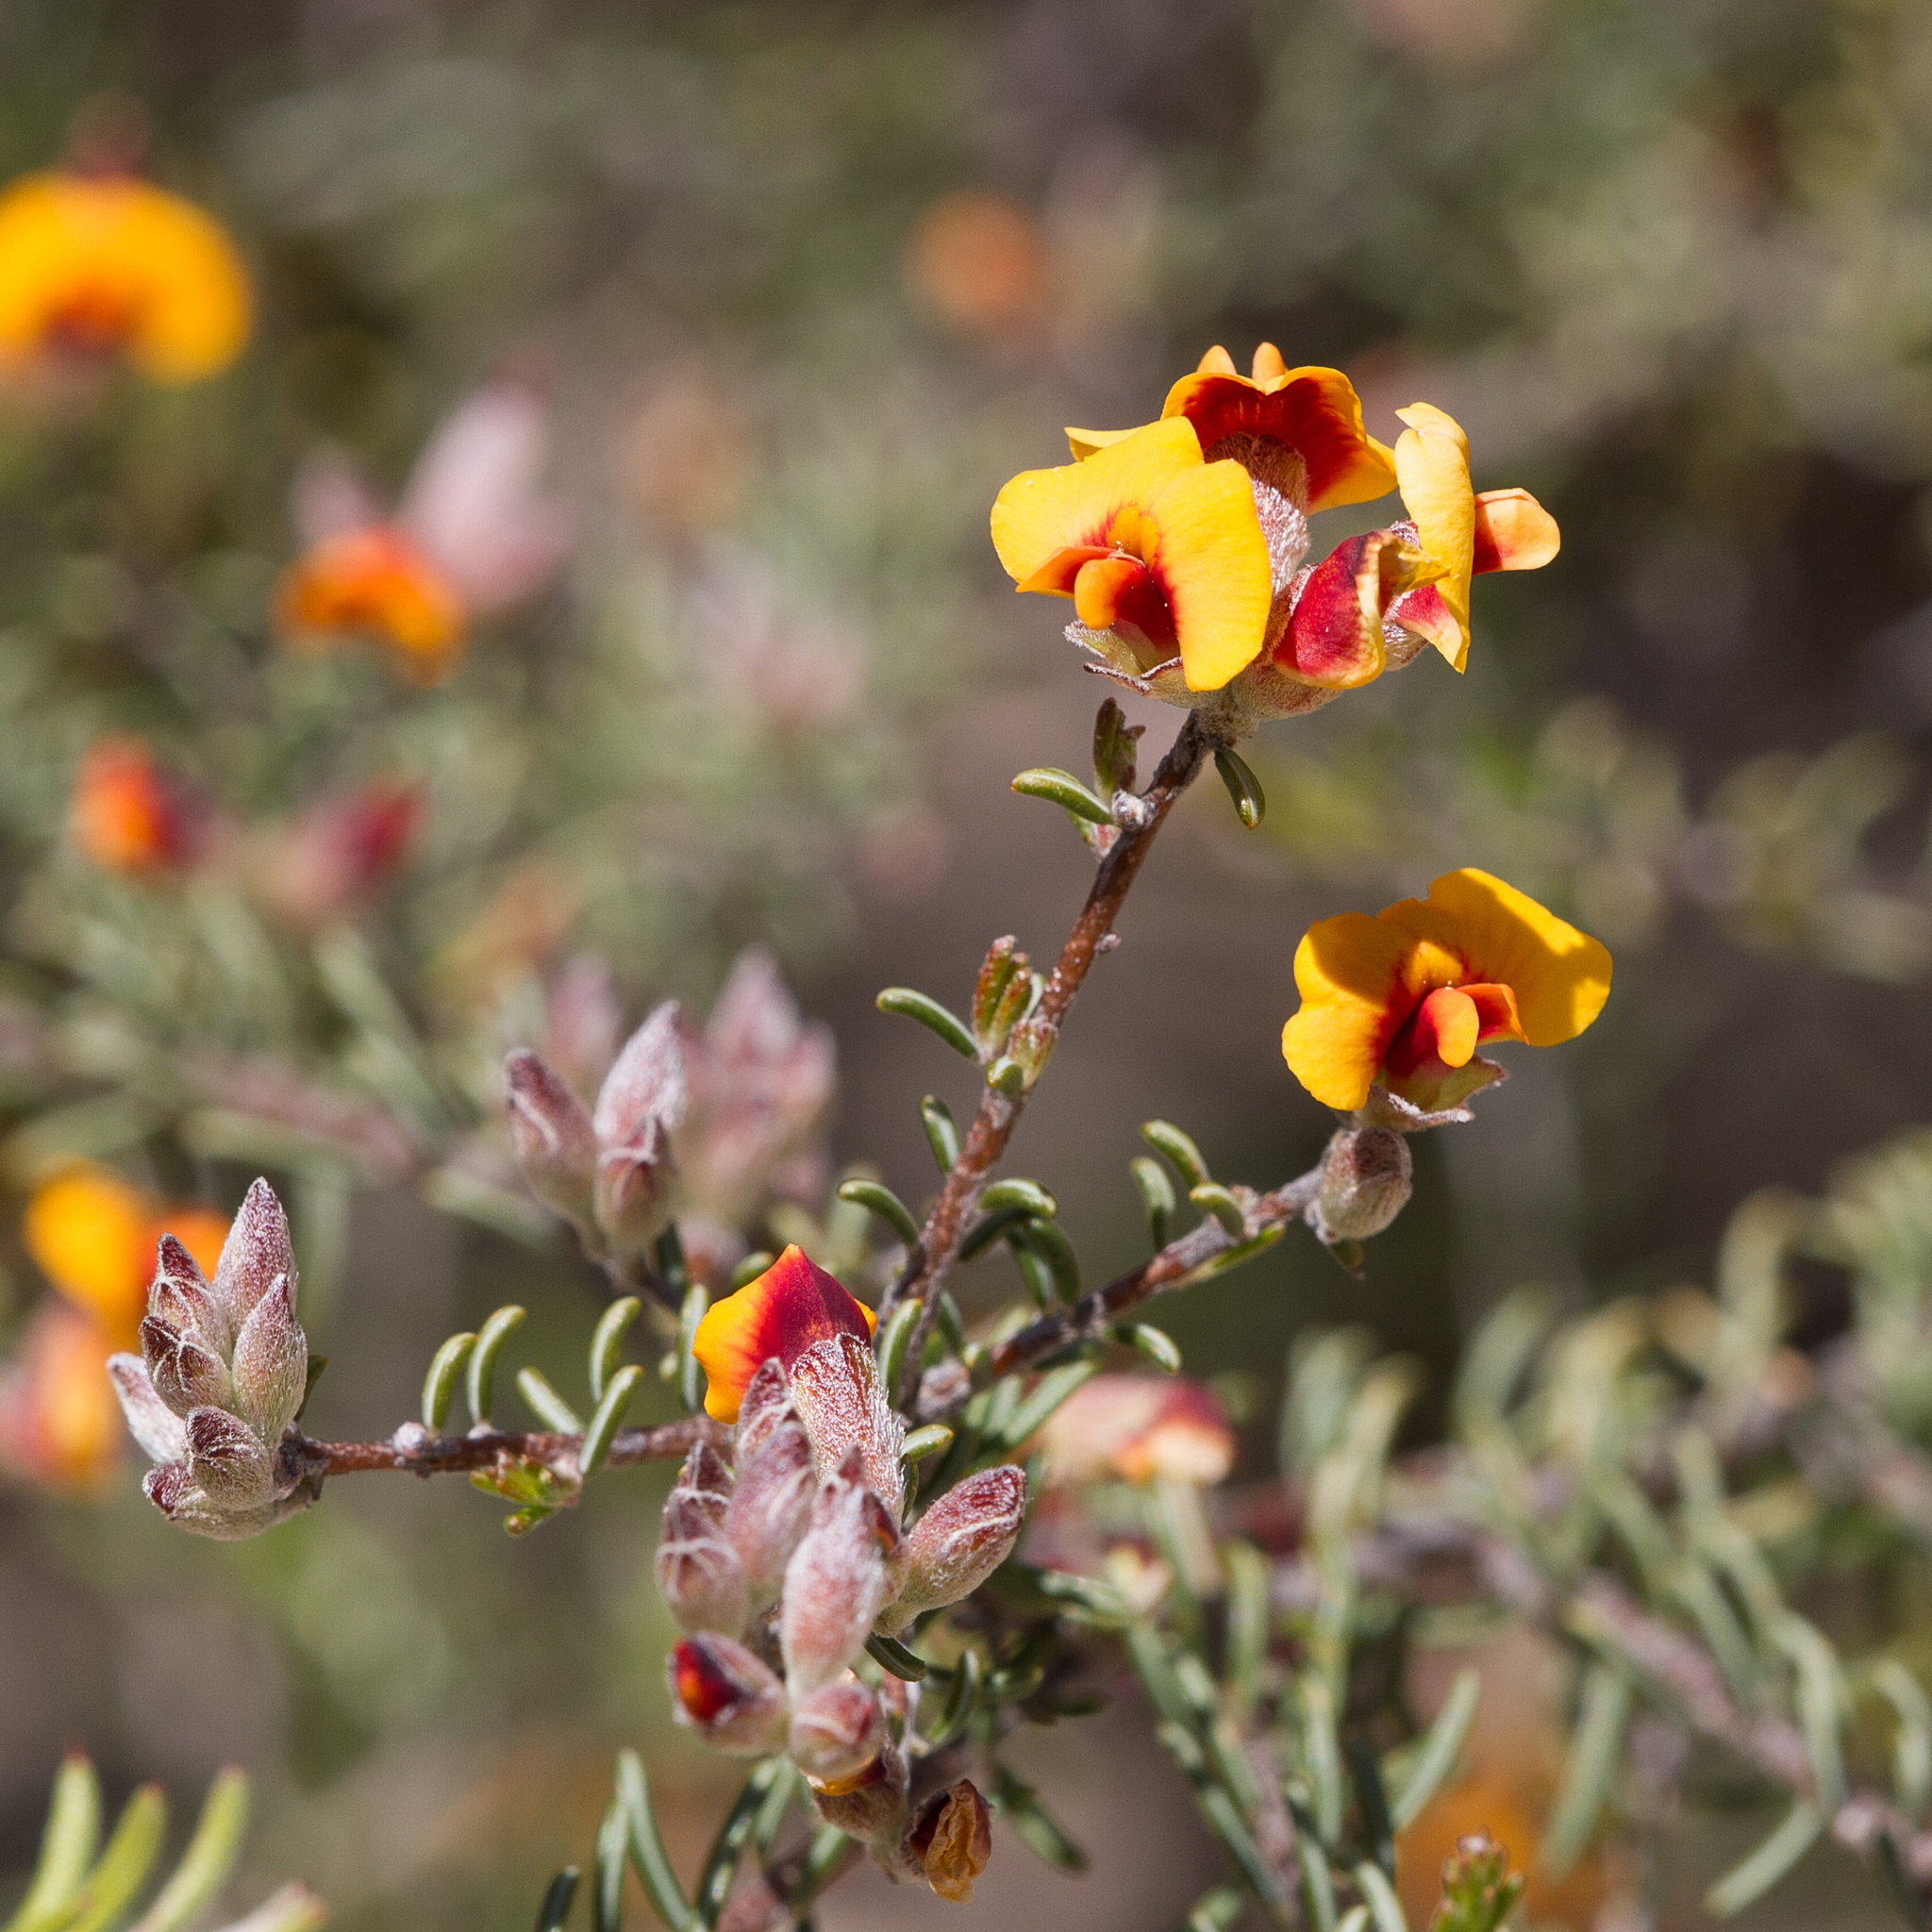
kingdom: Plantae
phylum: Tracheophyta
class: Magnoliopsida
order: Fabales
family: Fabaceae
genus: Dillwynia
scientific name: Dillwynia uncinata
